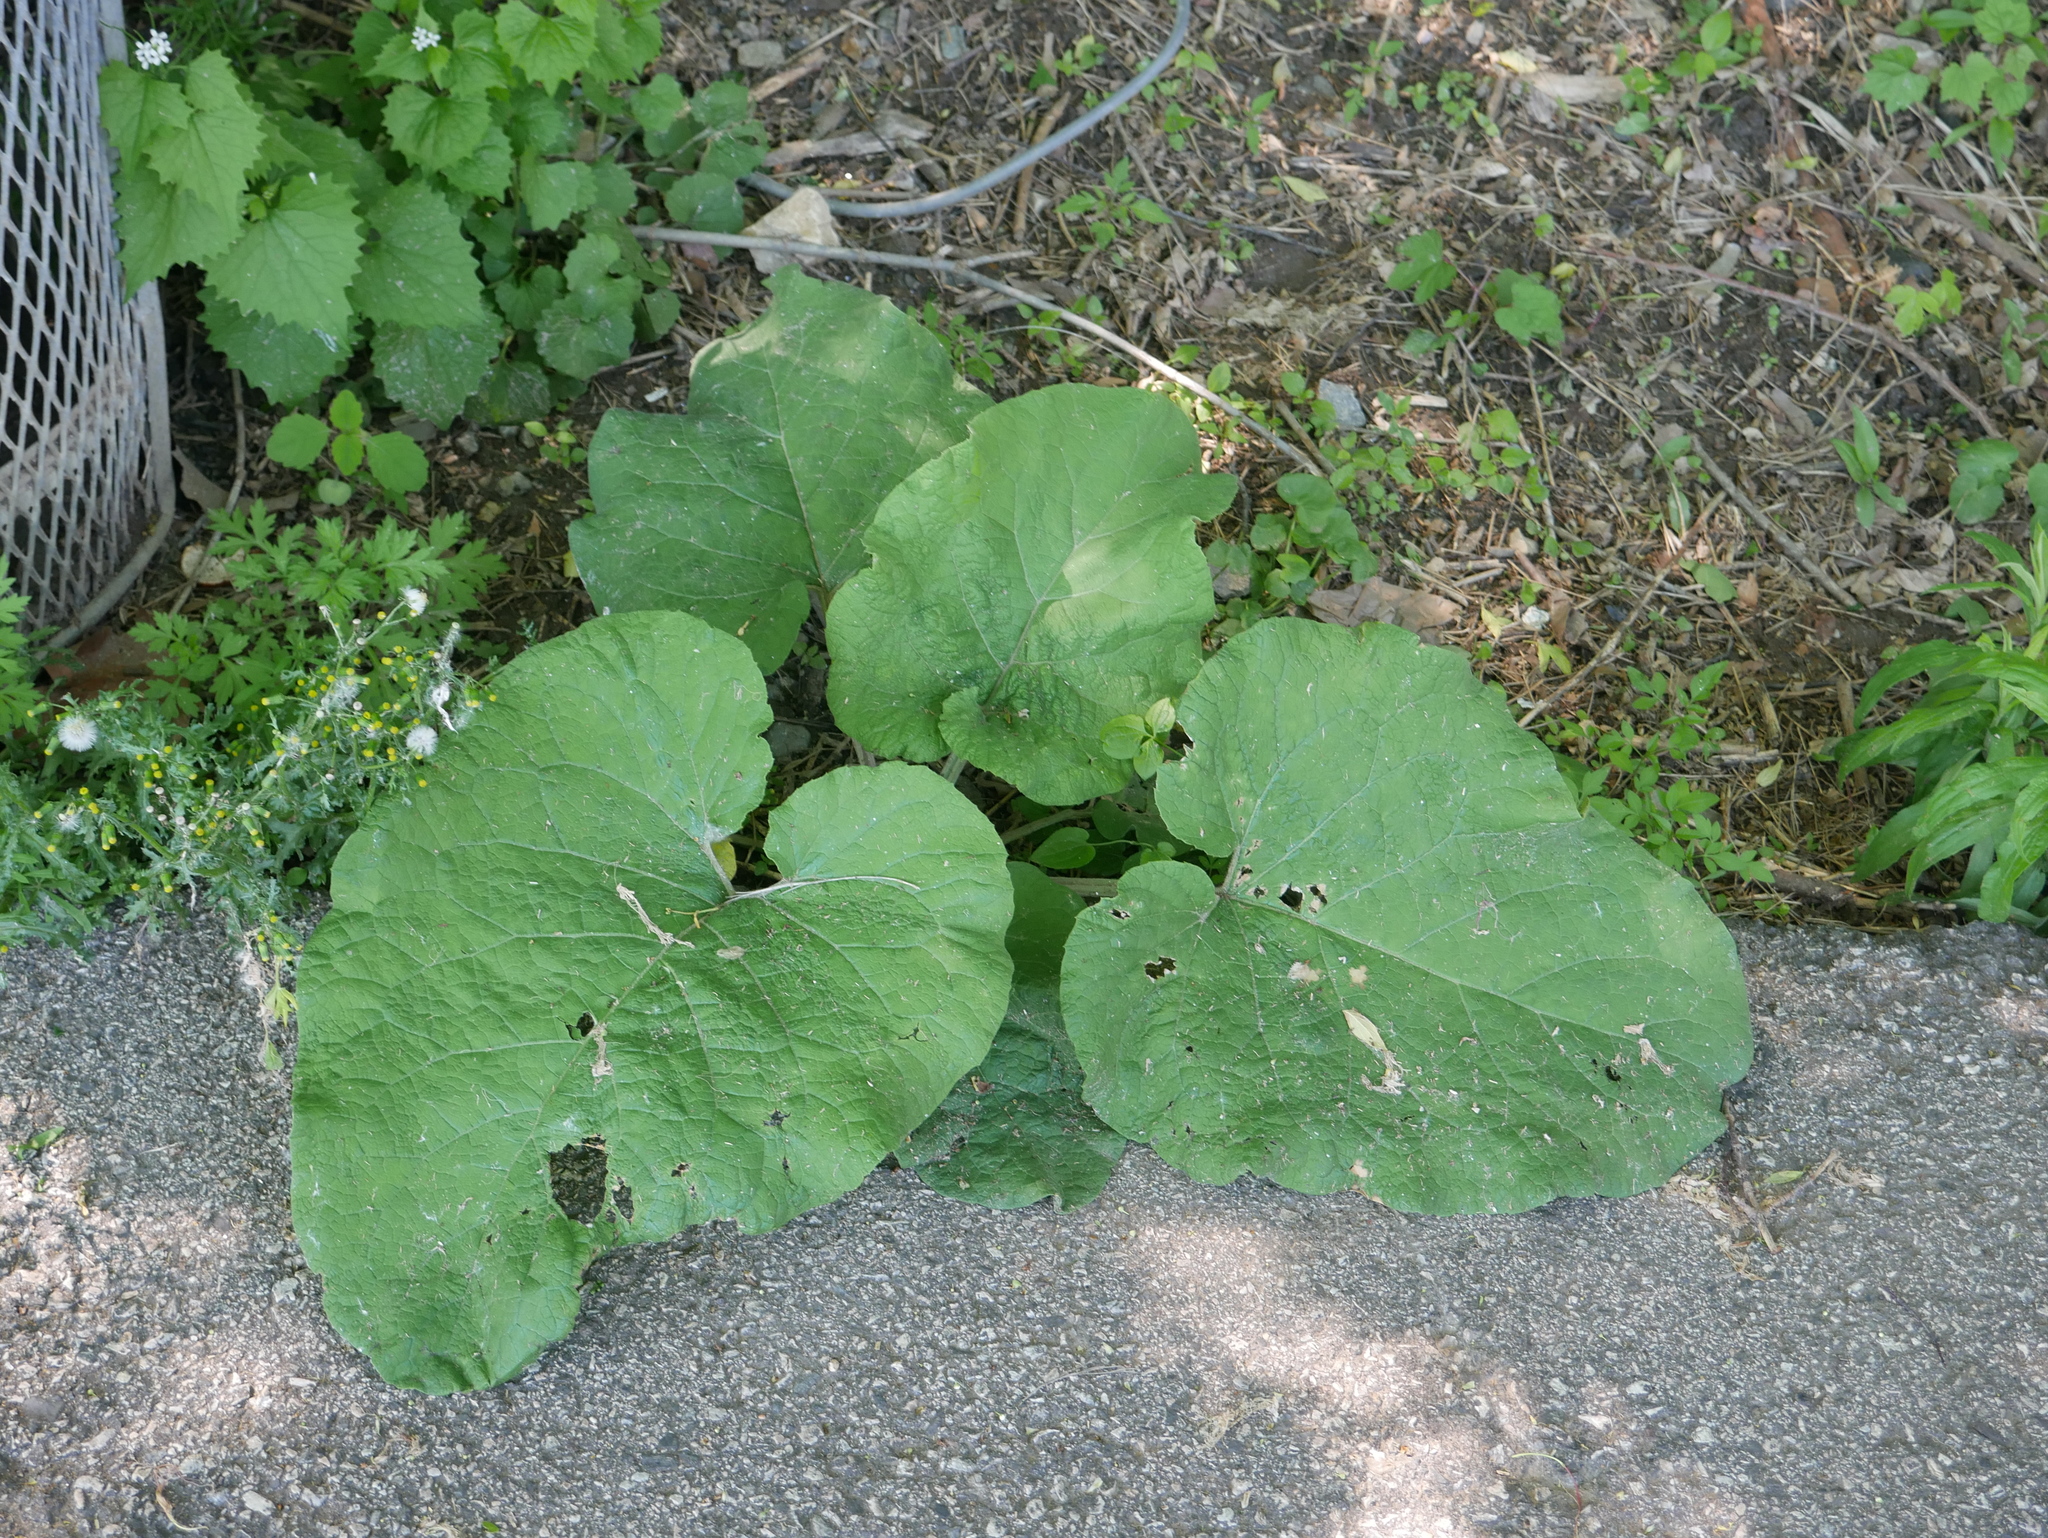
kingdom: Plantae
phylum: Tracheophyta
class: Magnoliopsida
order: Asterales
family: Asteraceae
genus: Arctium
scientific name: Arctium
